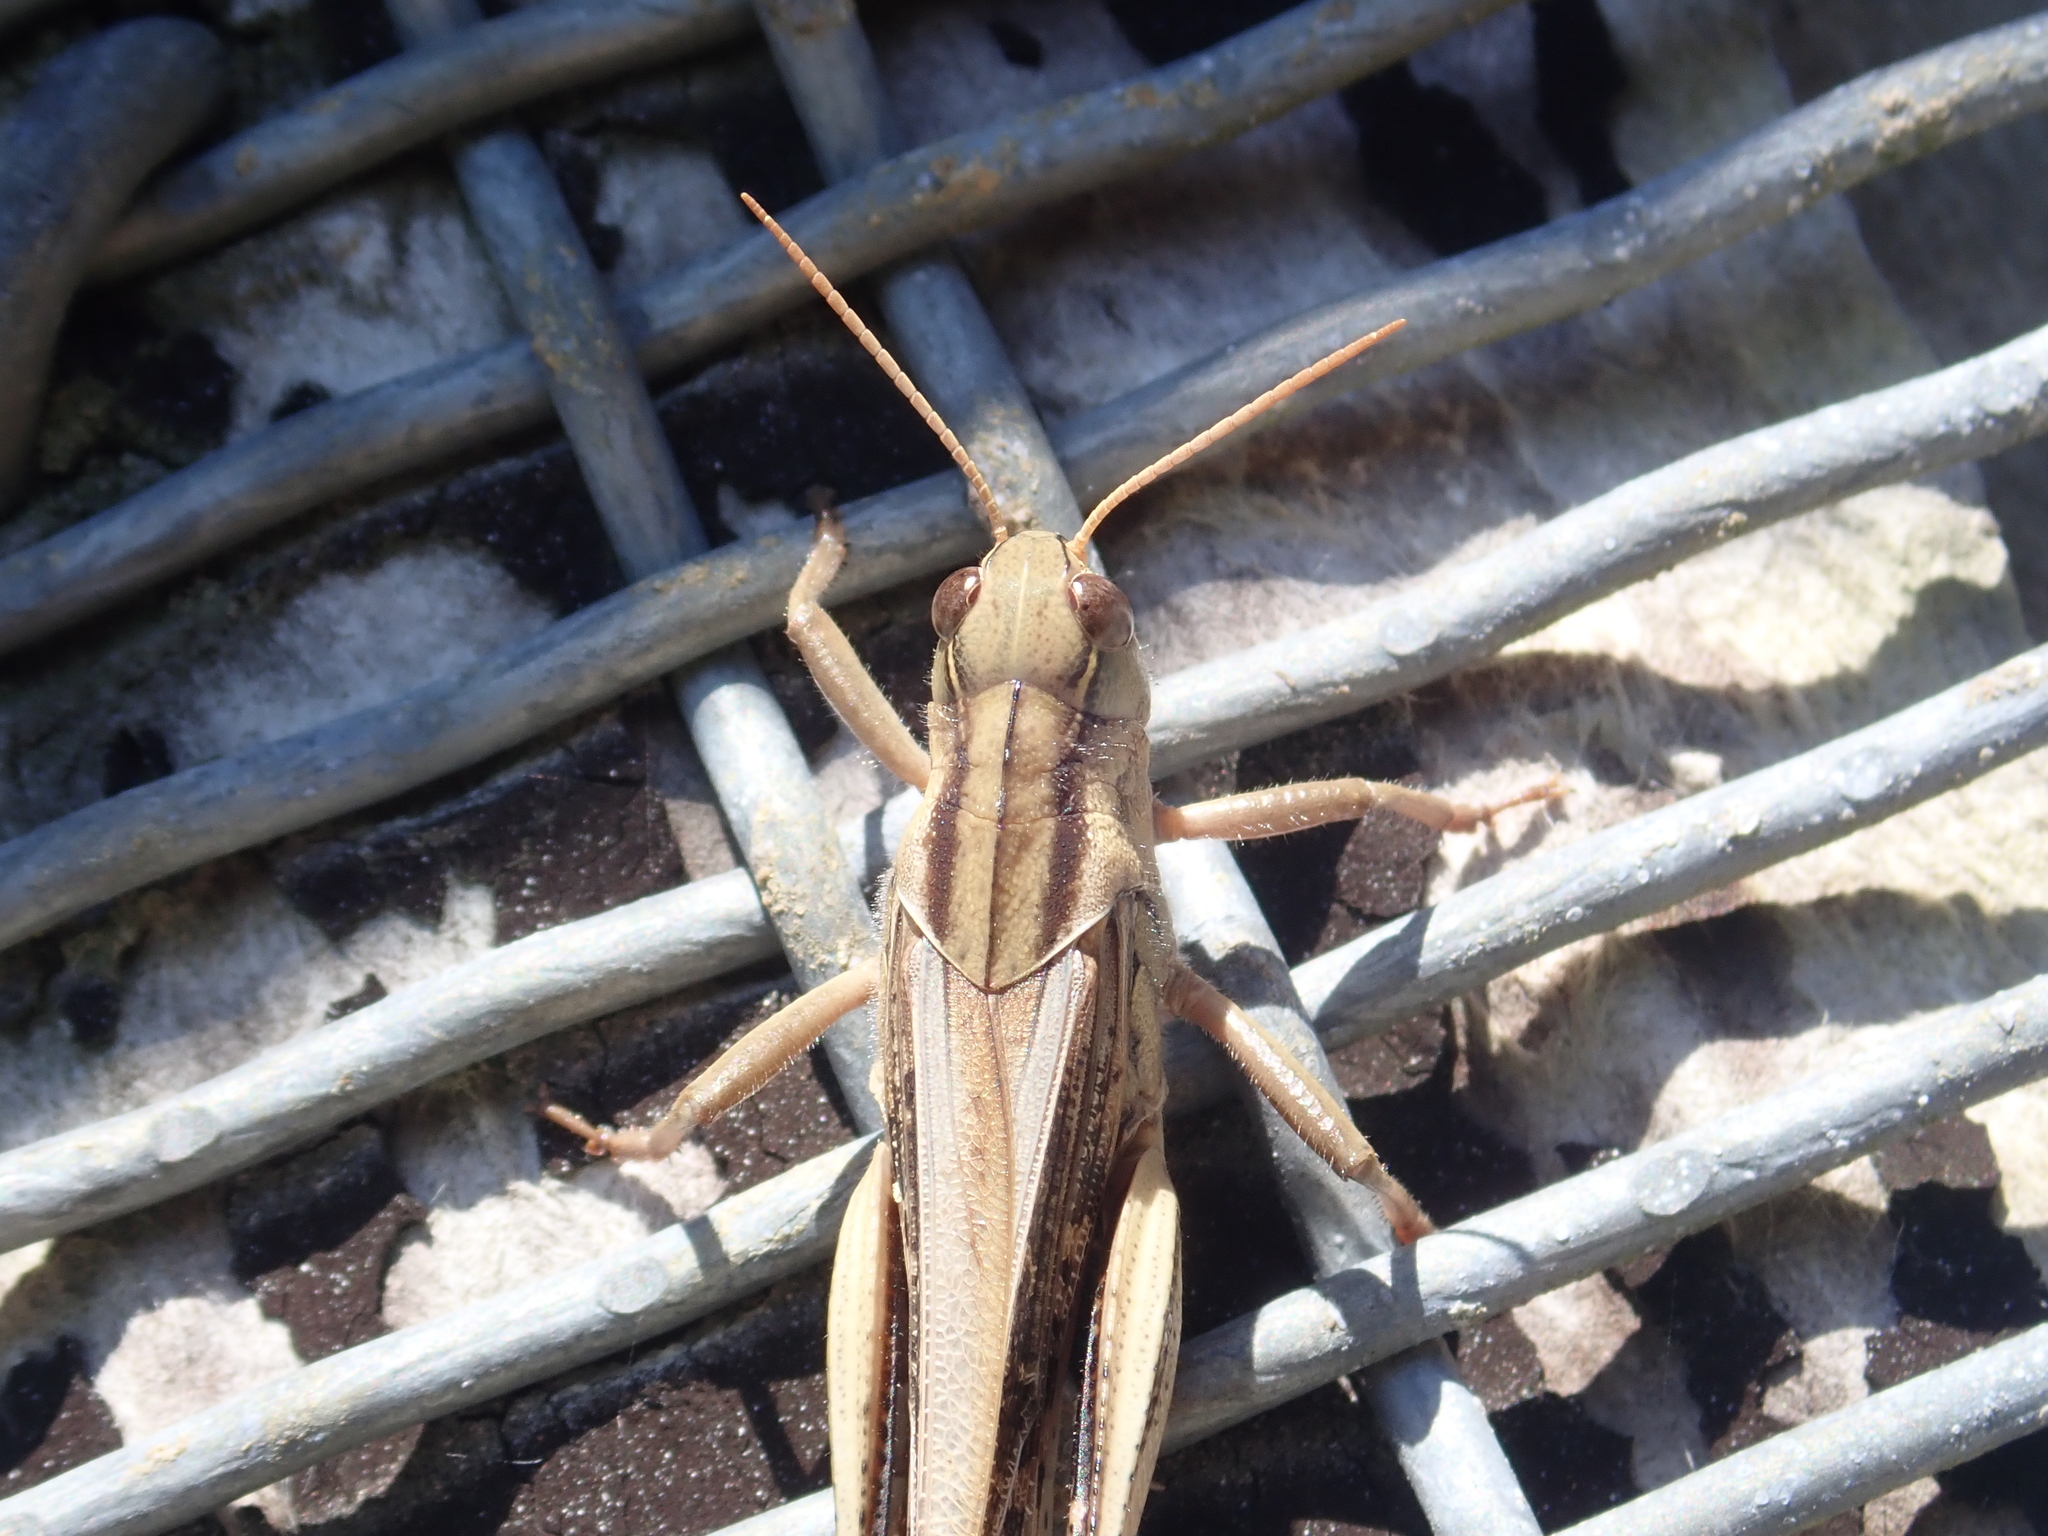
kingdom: Animalia
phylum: Arthropoda
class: Insecta
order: Orthoptera
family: Acrididae
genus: Locusta
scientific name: Locusta migratoria
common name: Migratory locust
